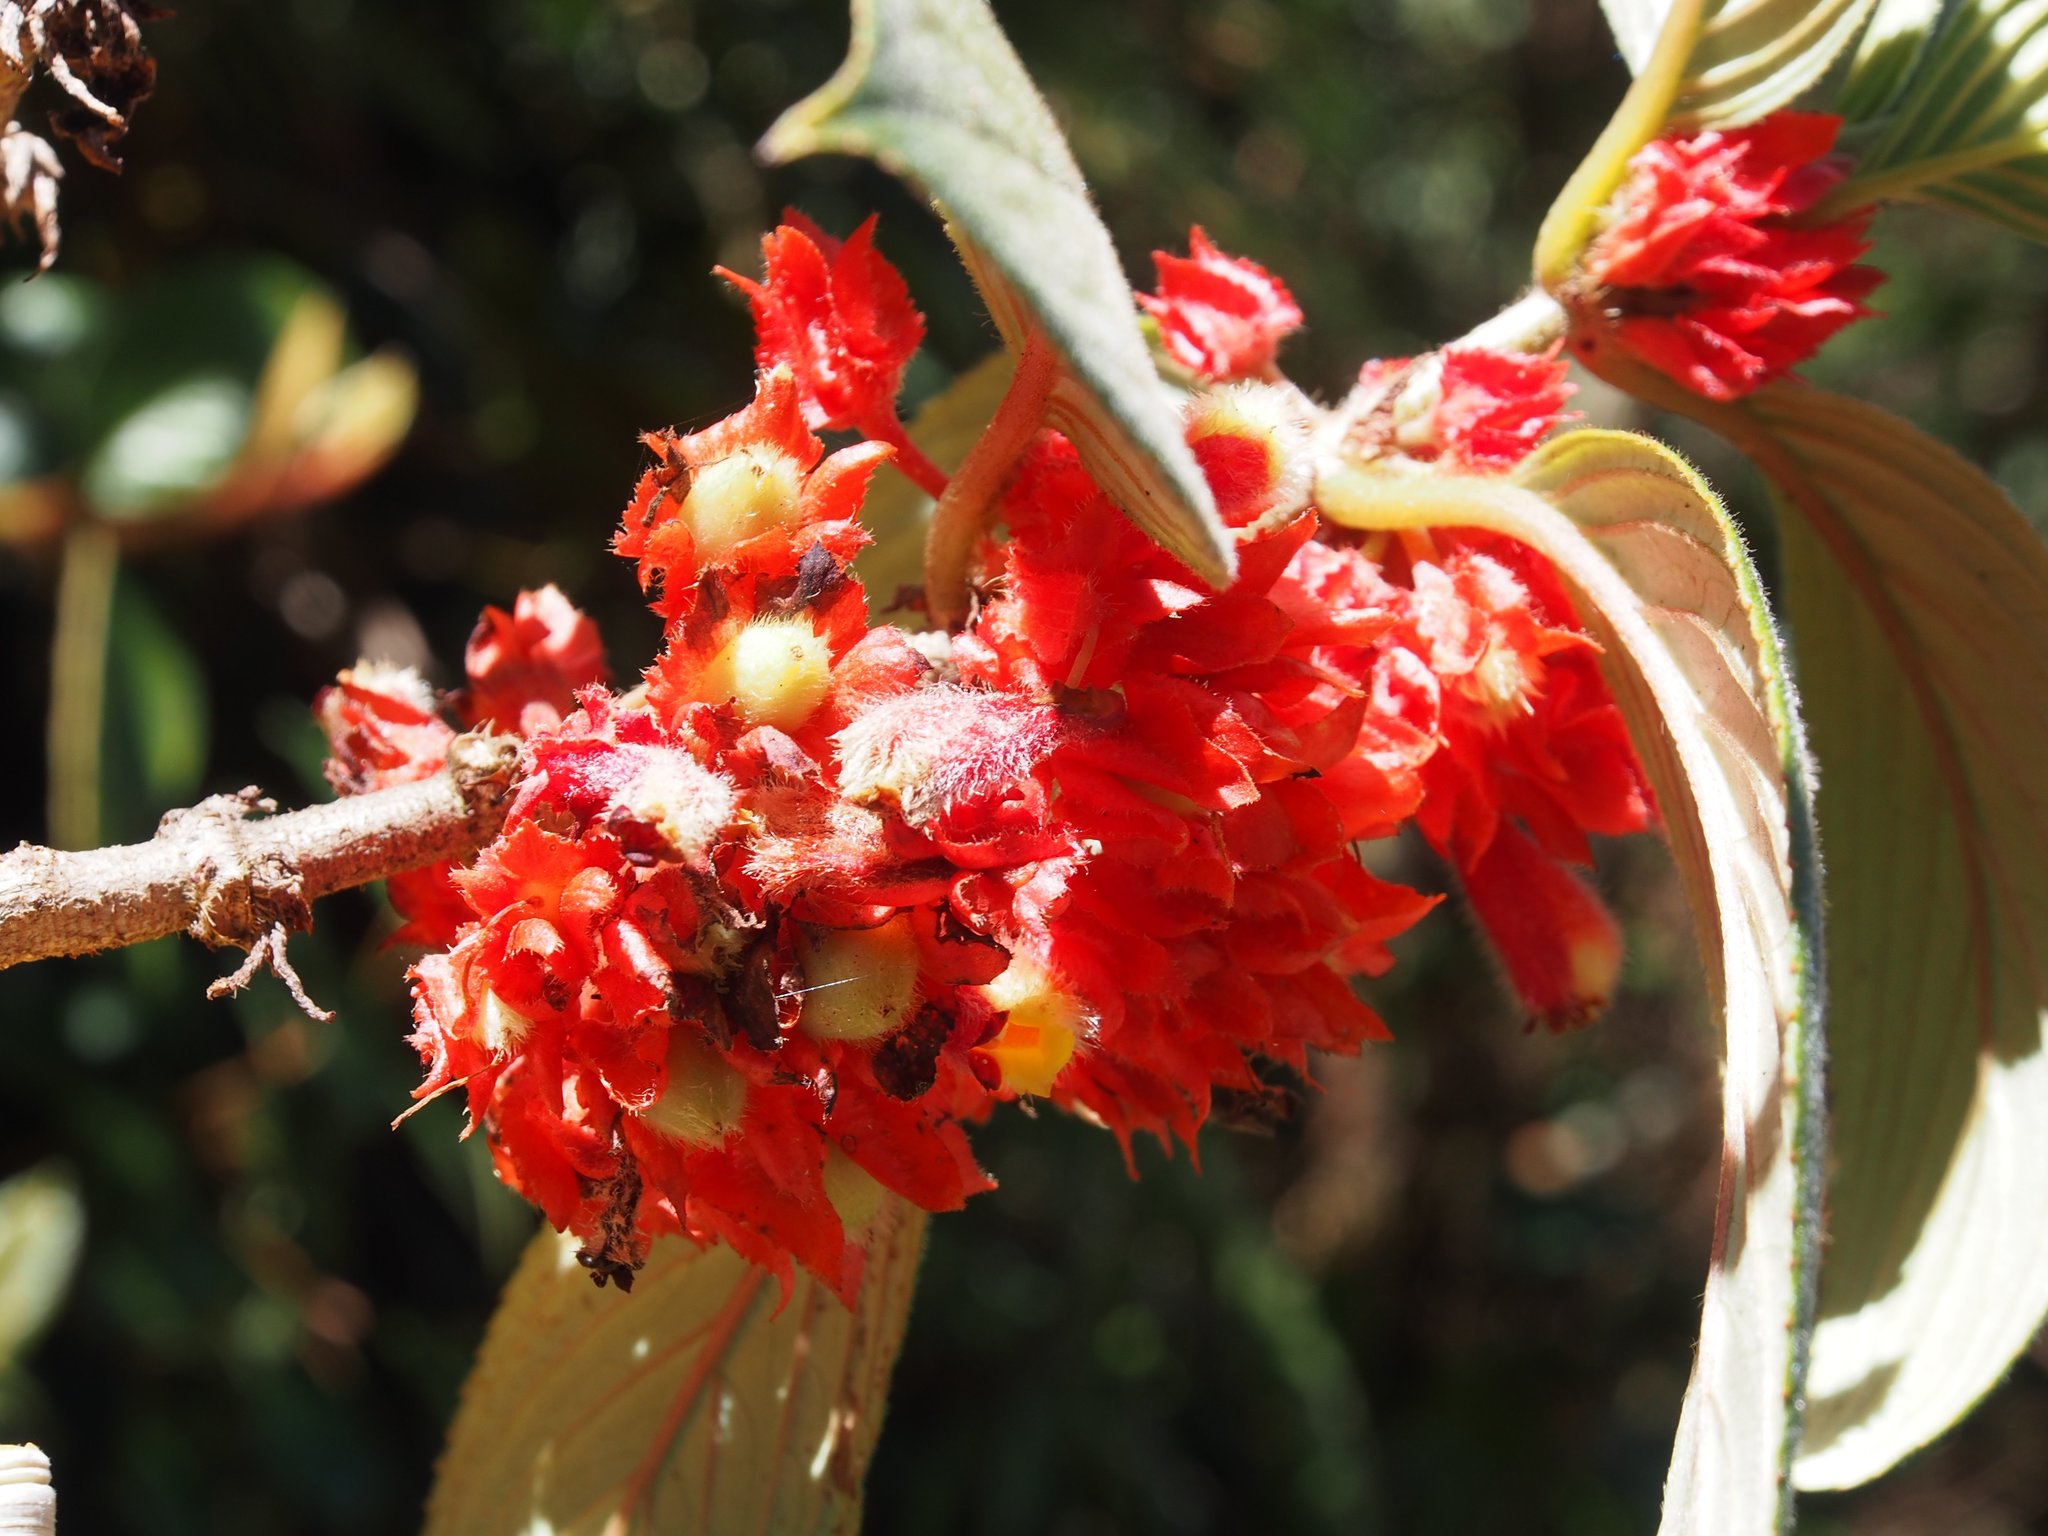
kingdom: Plantae
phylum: Tracheophyta
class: Magnoliopsida
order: Lamiales
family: Gesneriaceae
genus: Glossoloma
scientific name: Glossoloma ichthyoderma
